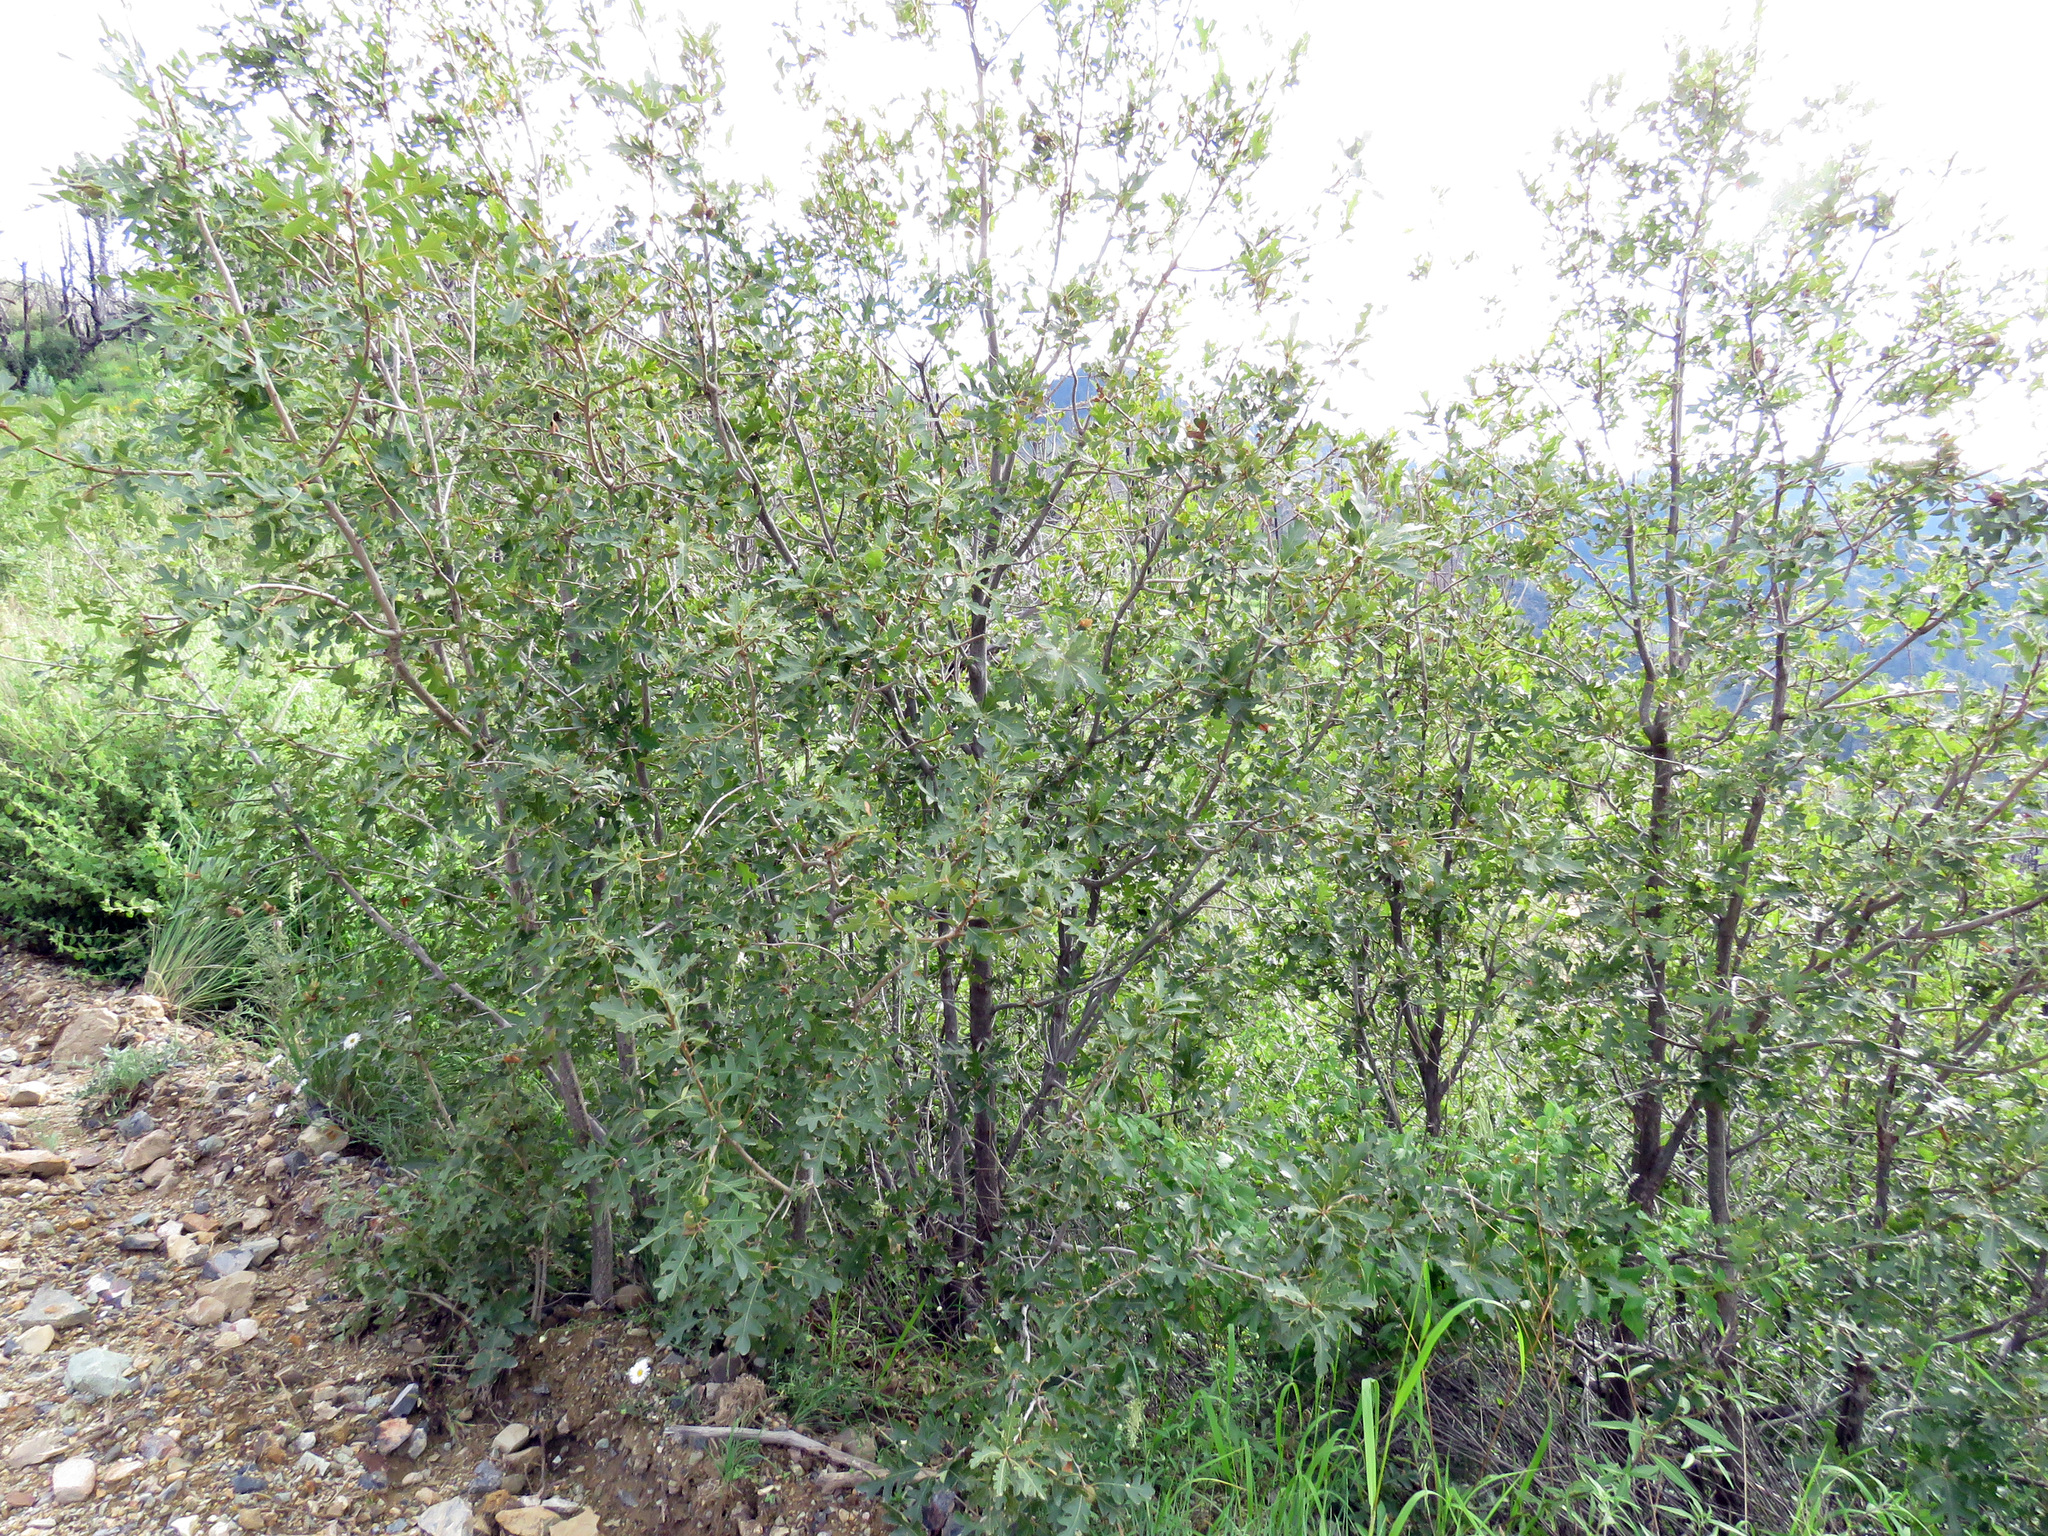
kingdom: Plantae
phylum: Tracheophyta
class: Magnoliopsida
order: Fagales
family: Fagaceae
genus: Quercus
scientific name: Quercus gambelii
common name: Gambel oak
